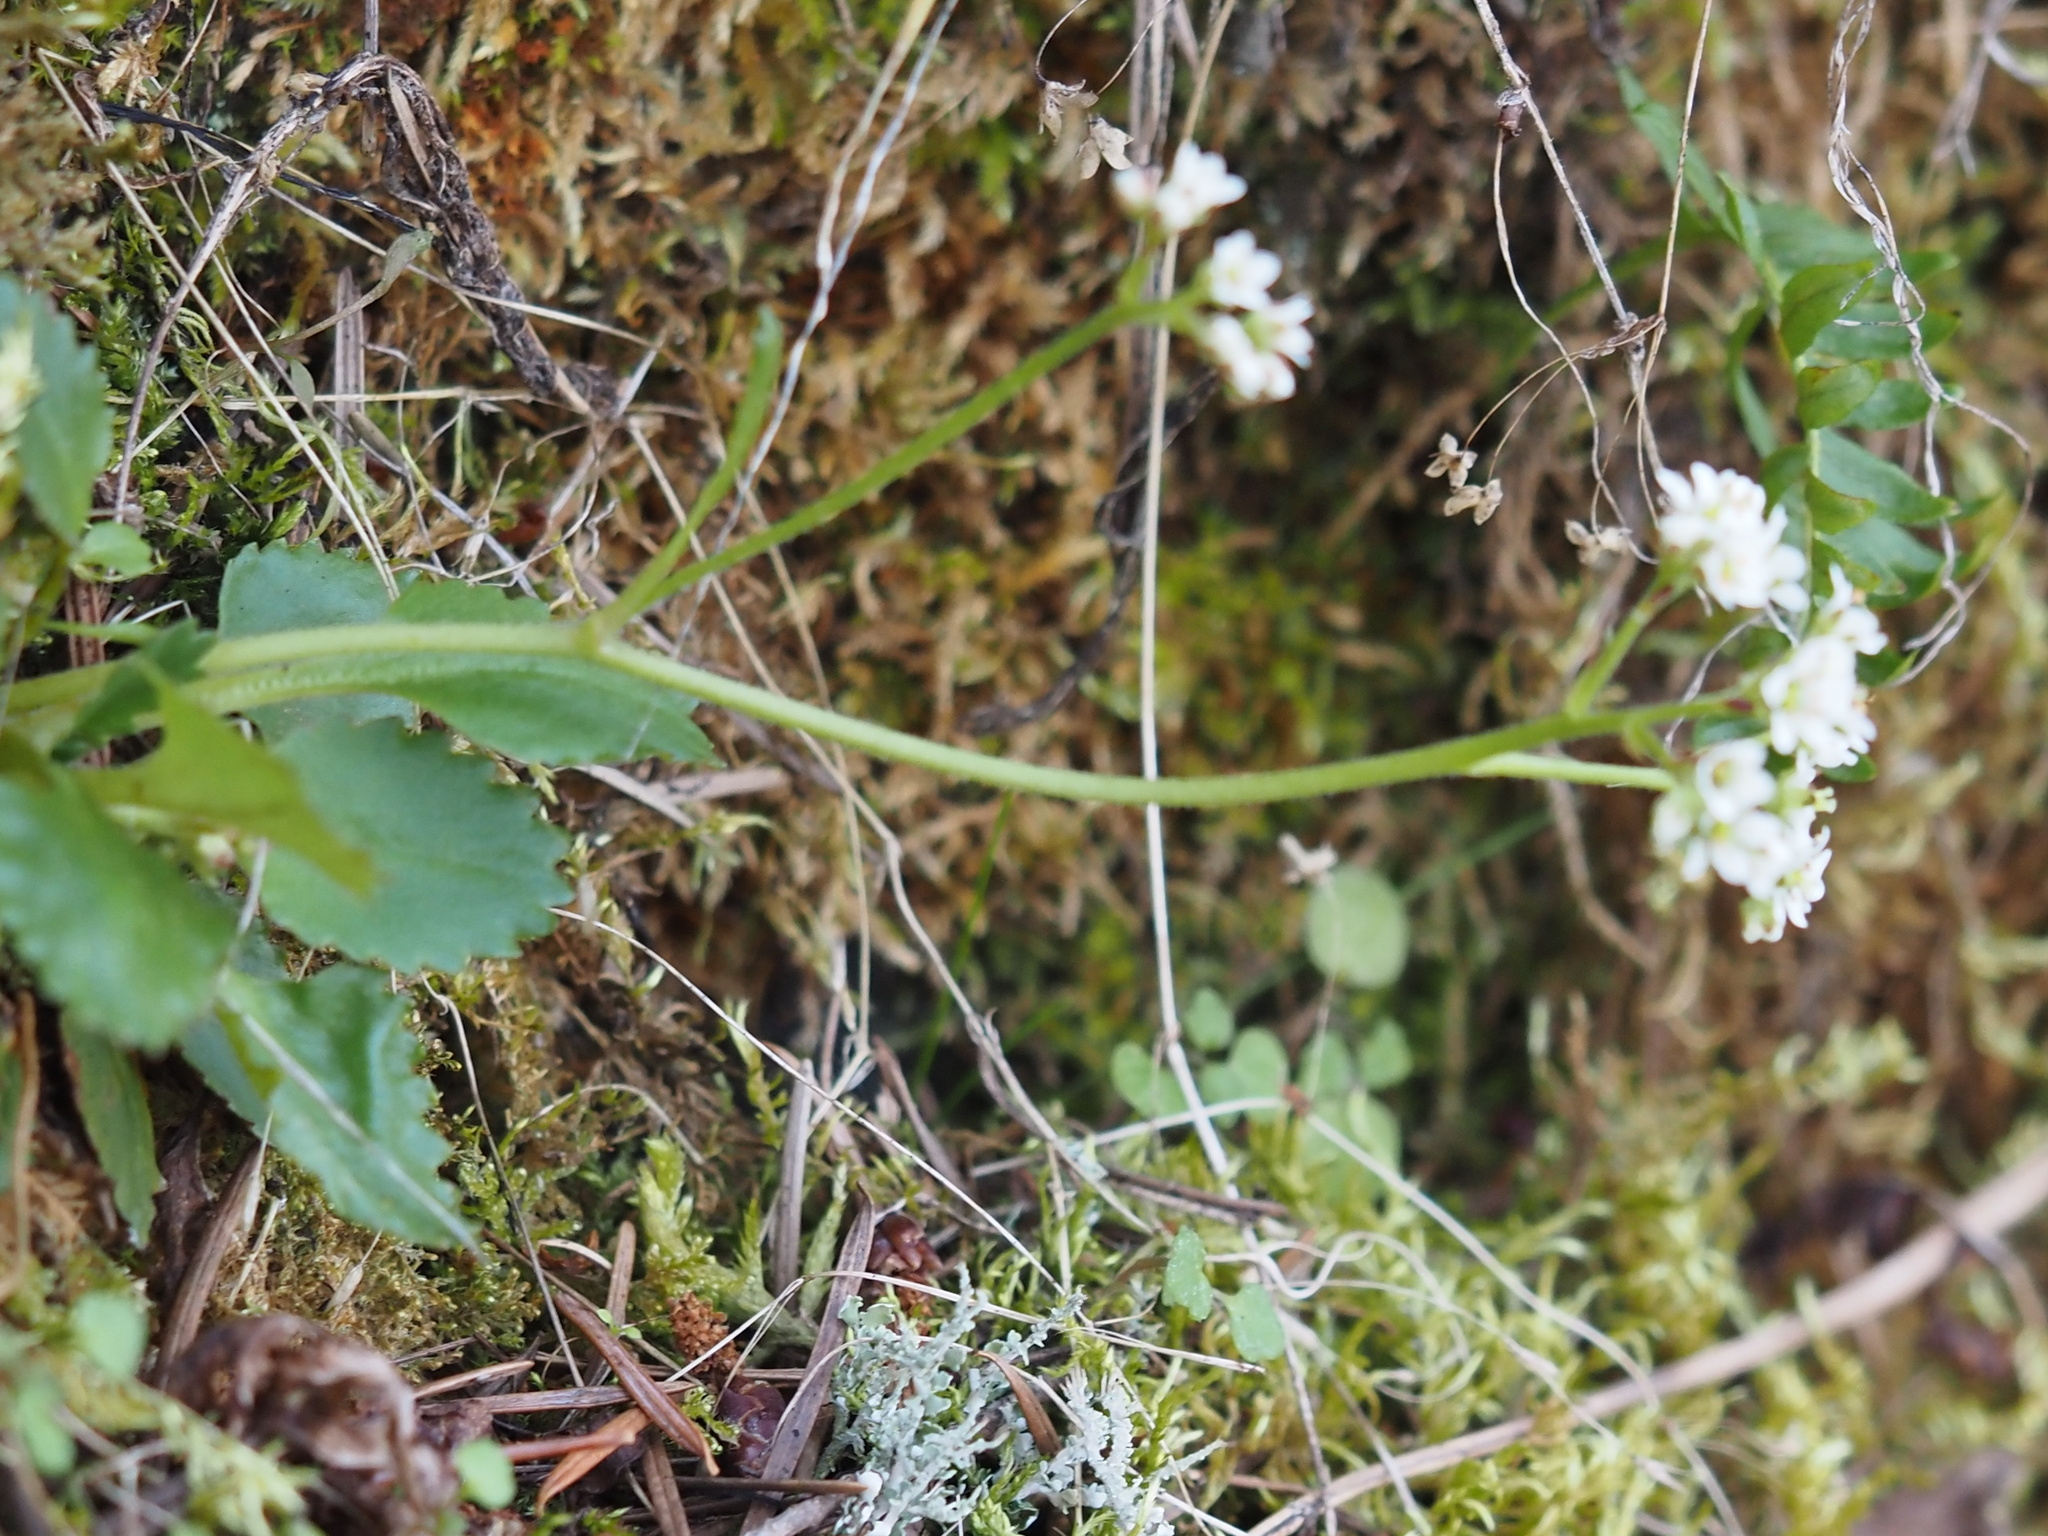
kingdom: Plantae
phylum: Tracheophyta
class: Magnoliopsida
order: Saxifragales
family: Saxifragaceae
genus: Micranthes
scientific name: Micranthes rufidula
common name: Rustyhair saxifrage
